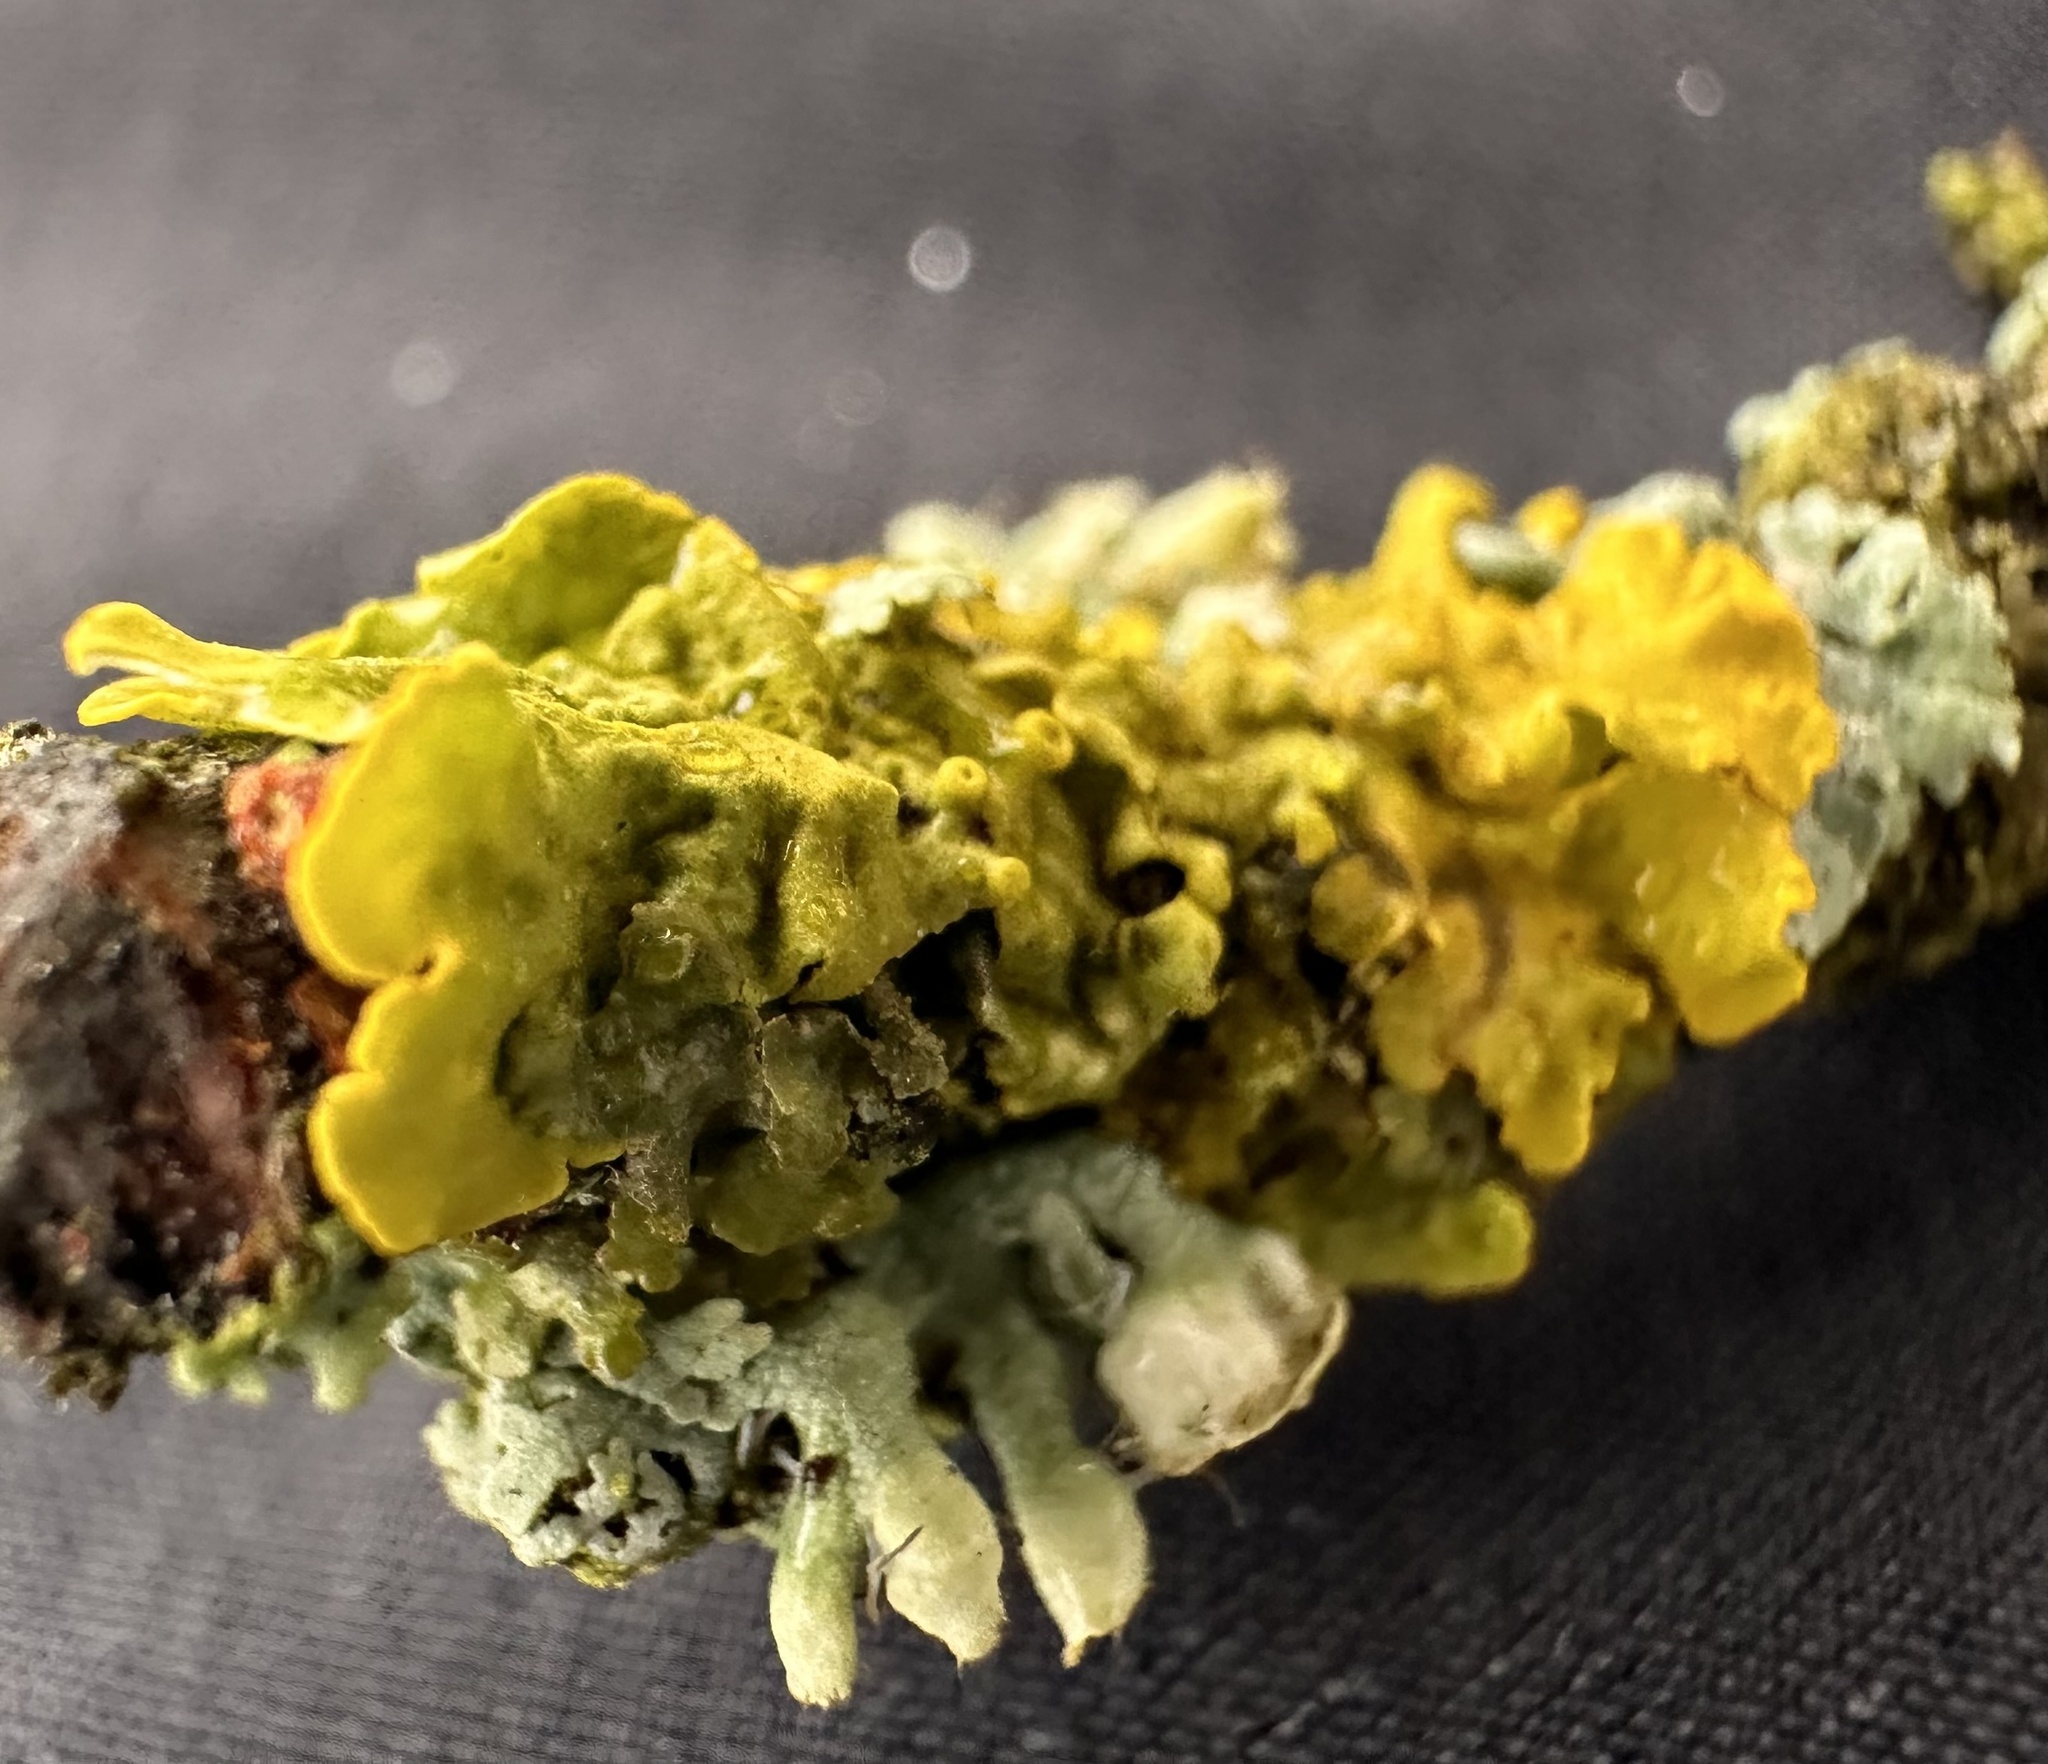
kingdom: Fungi
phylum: Ascomycota
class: Lecanoromycetes
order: Teloschistales
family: Teloschistaceae
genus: Xanthoria
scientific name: Xanthoria parietina
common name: Common orange lichen
